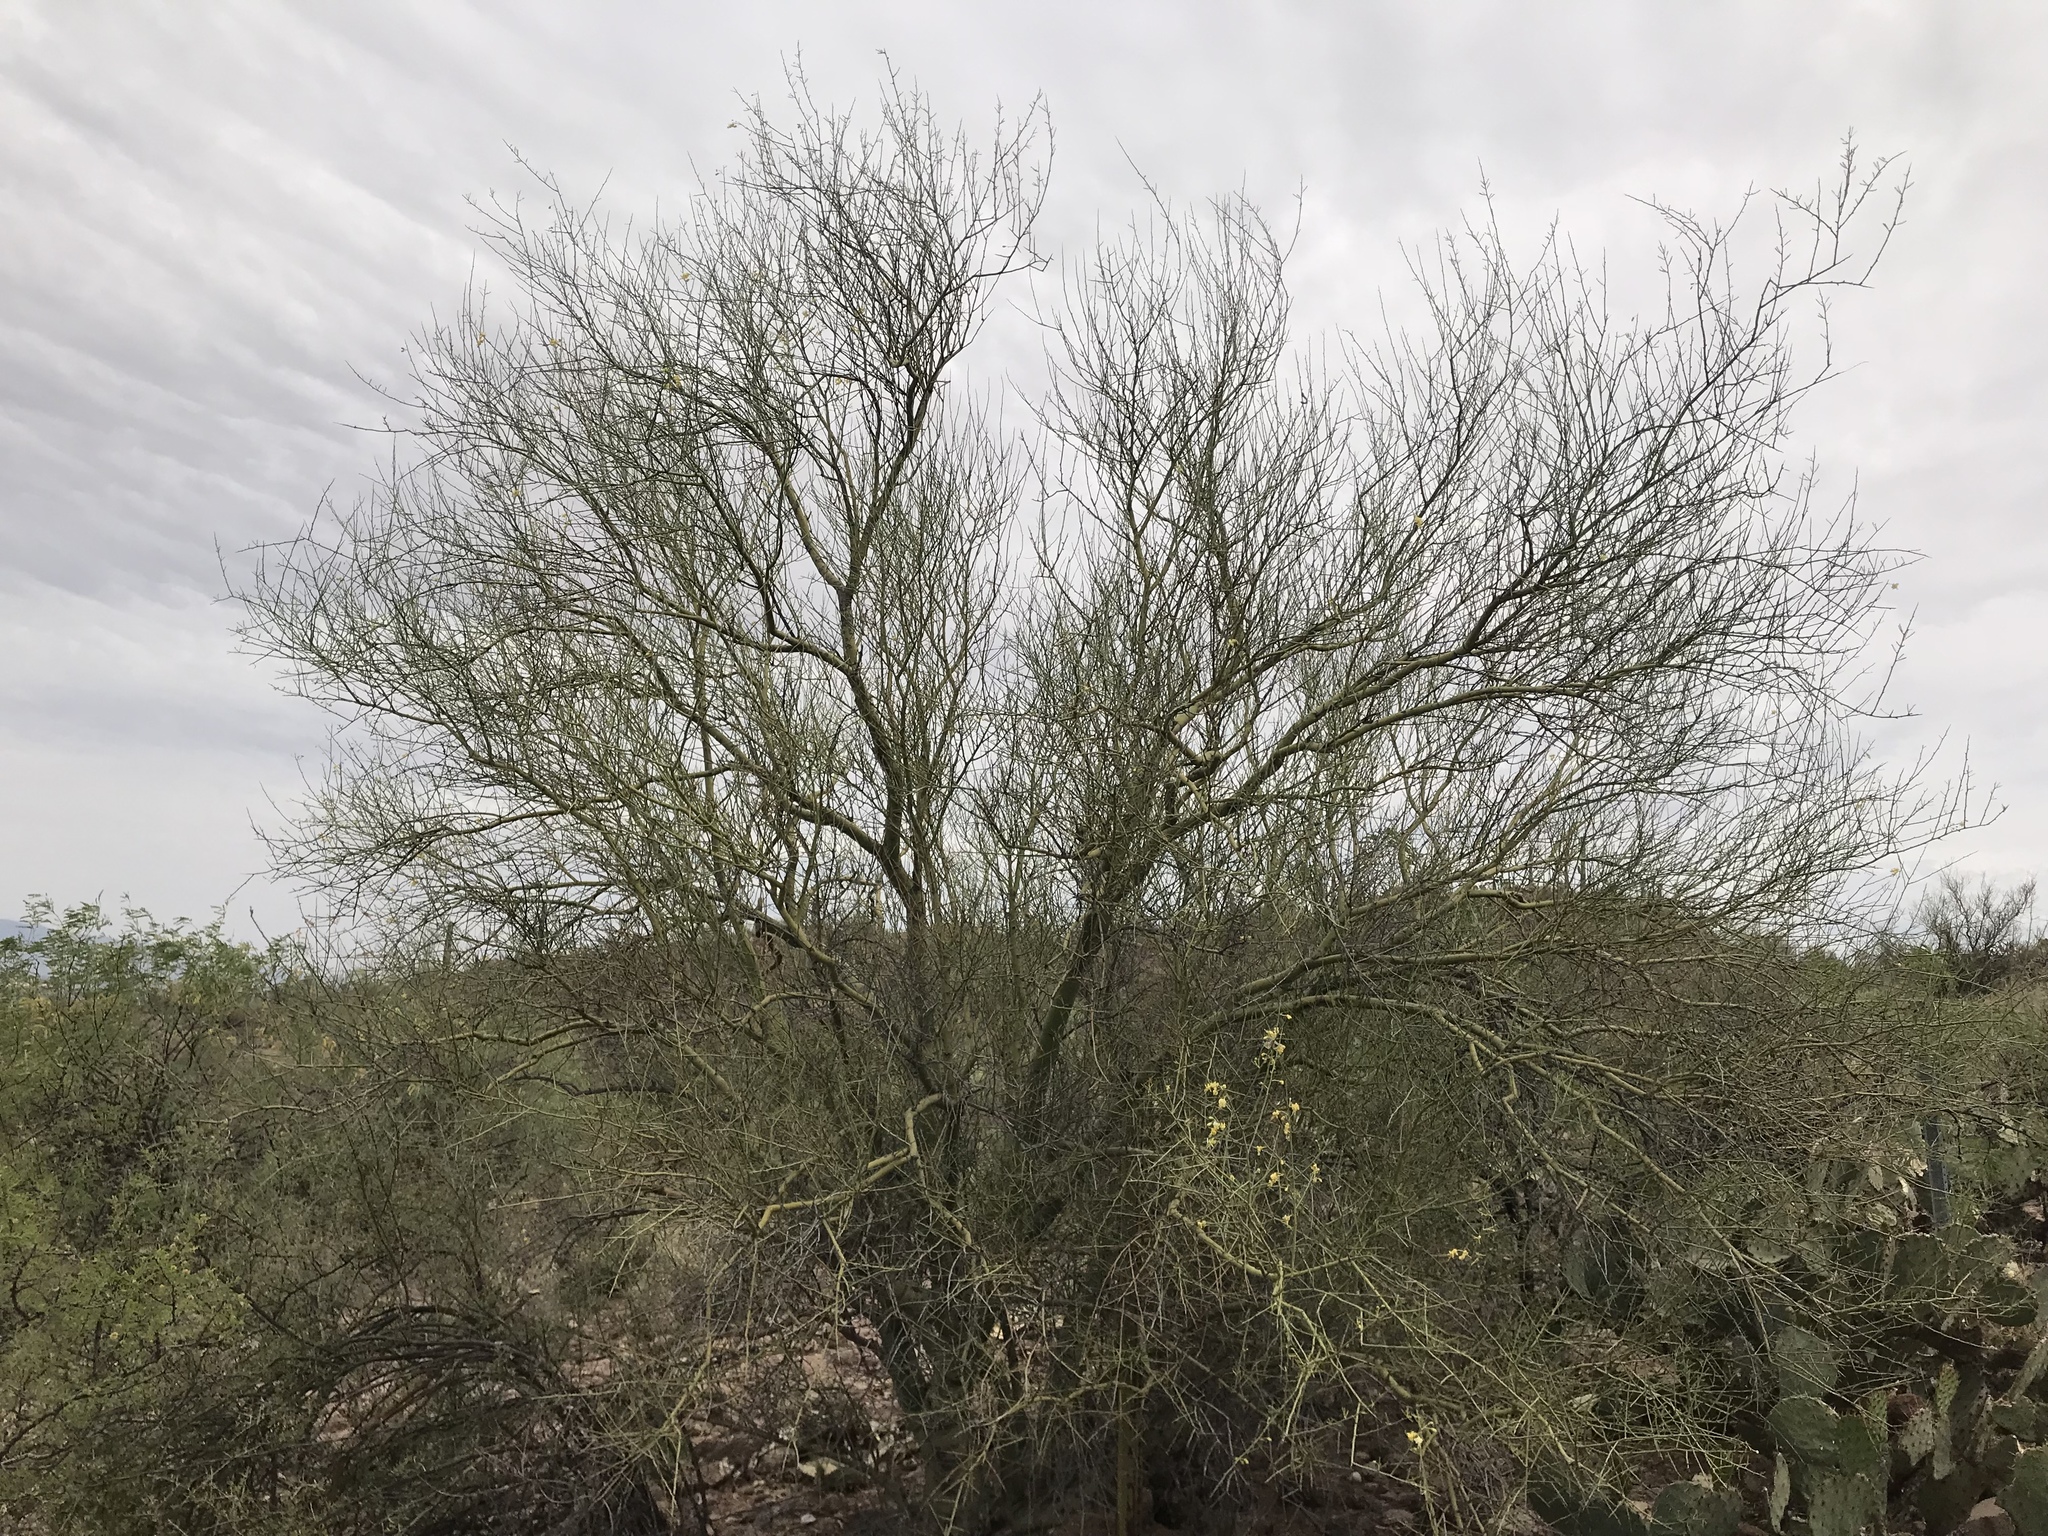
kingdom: Plantae
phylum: Tracheophyta
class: Magnoliopsida
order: Fabales
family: Fabaceae
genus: Parkinsonia
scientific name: Parkinsonia florida
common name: Blue paloverde
